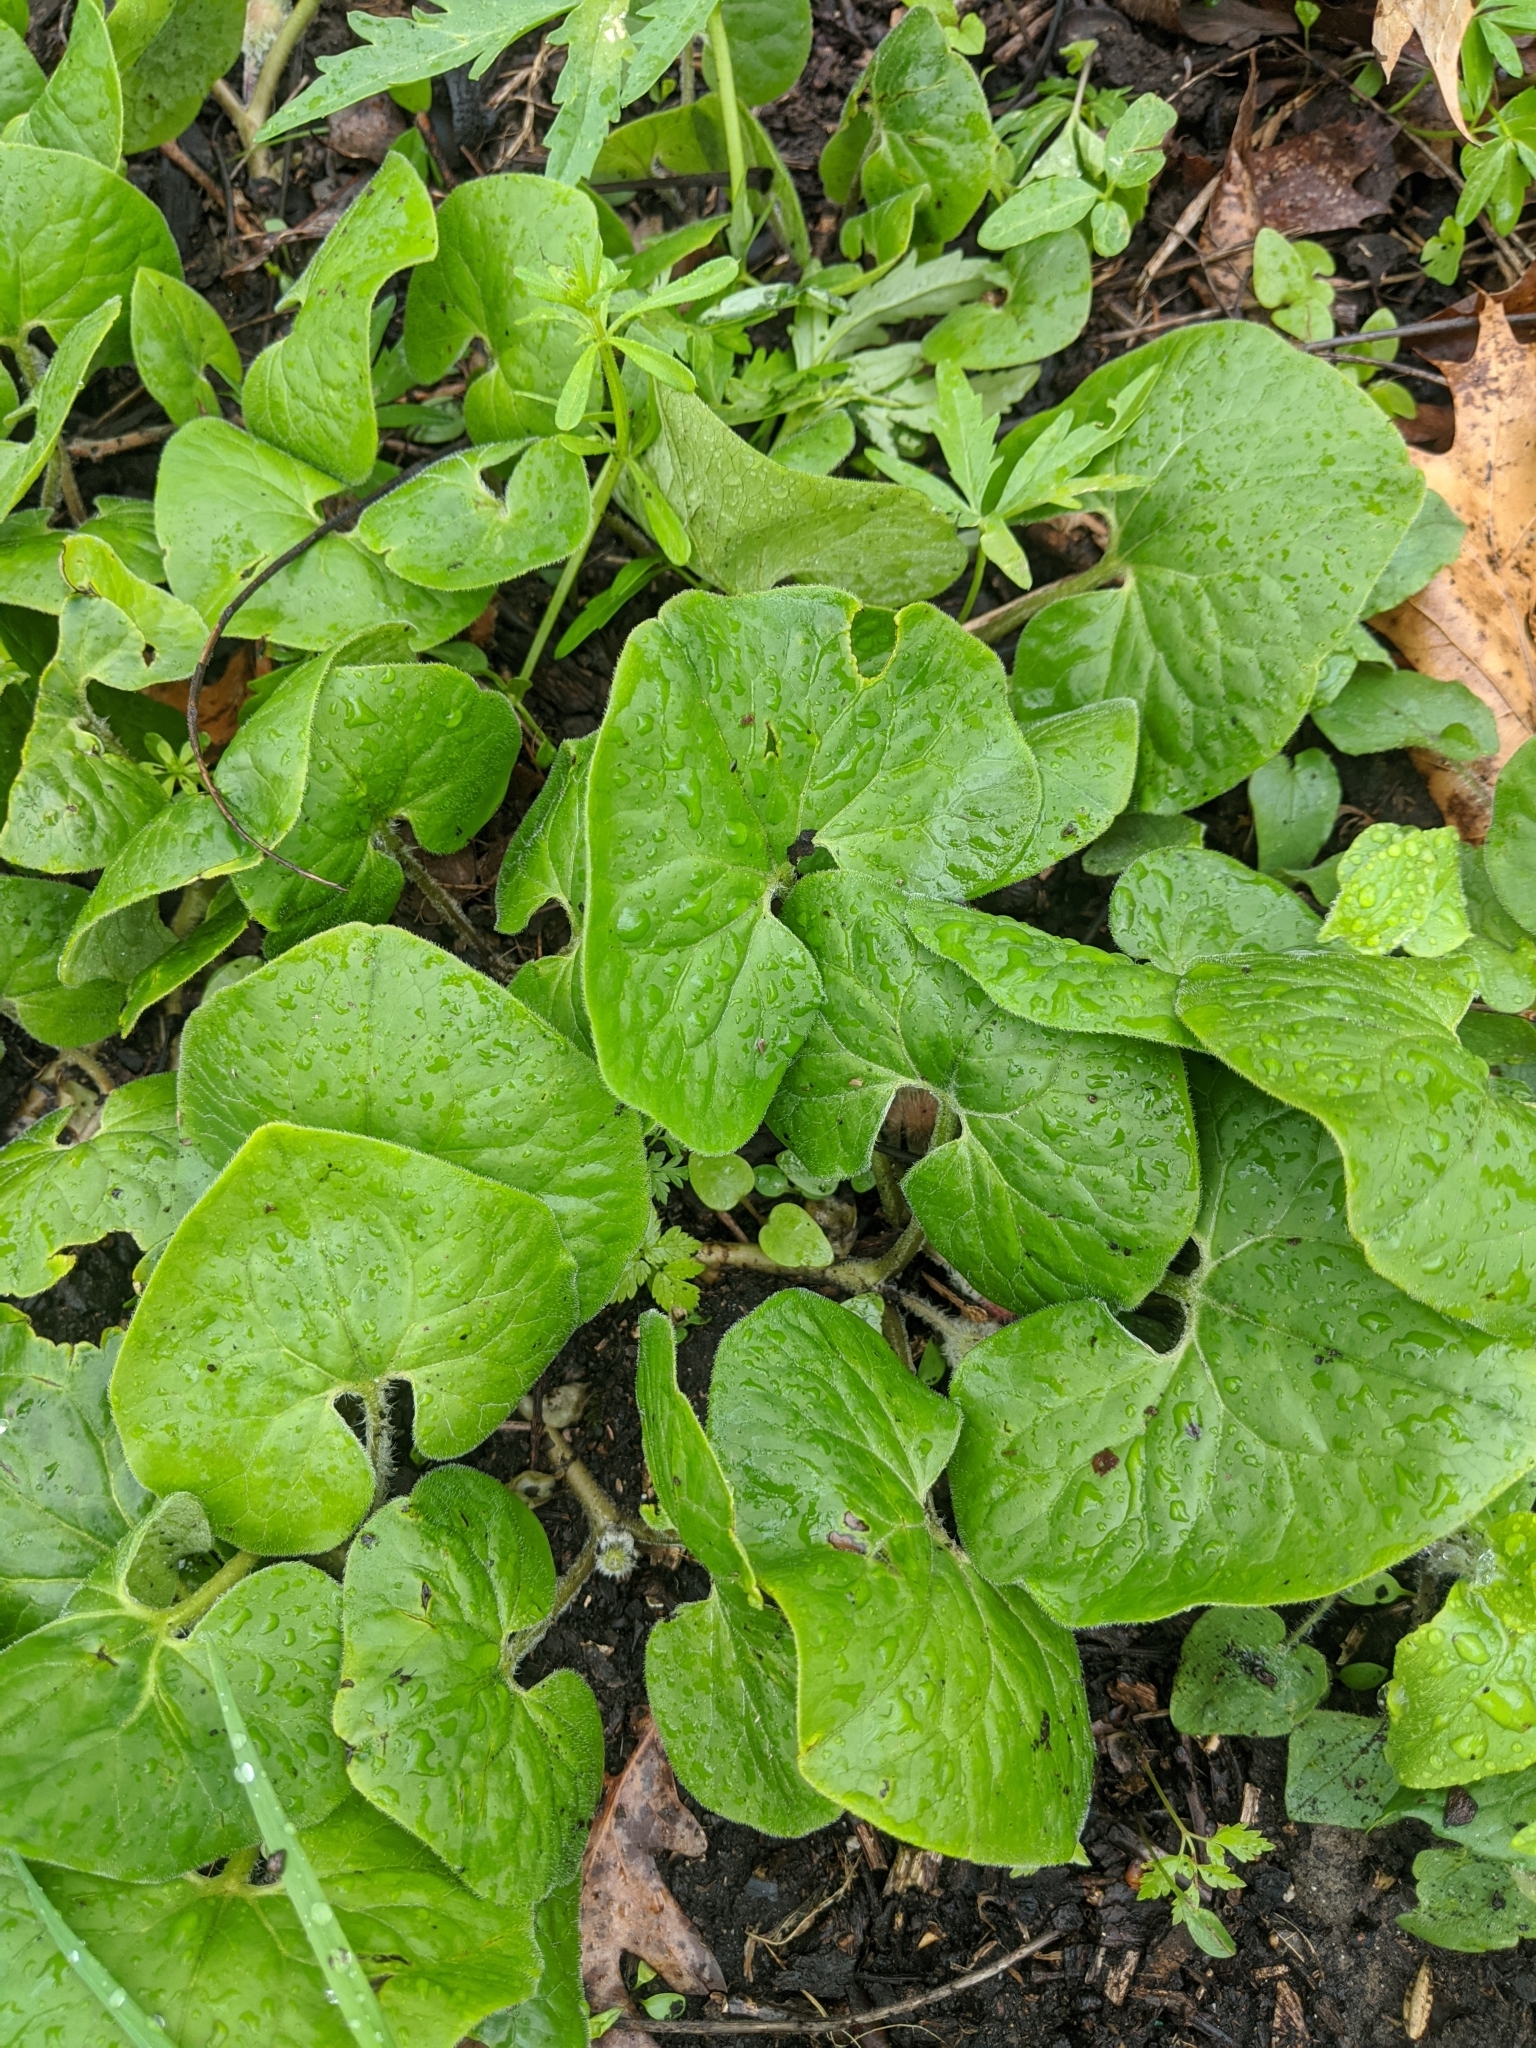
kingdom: Plantae
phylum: Tracheophyta
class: Magnoliopsida
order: Piperales
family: Aristolochiaceae
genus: Asarum
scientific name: Asarum canadense
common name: Wild ginger
